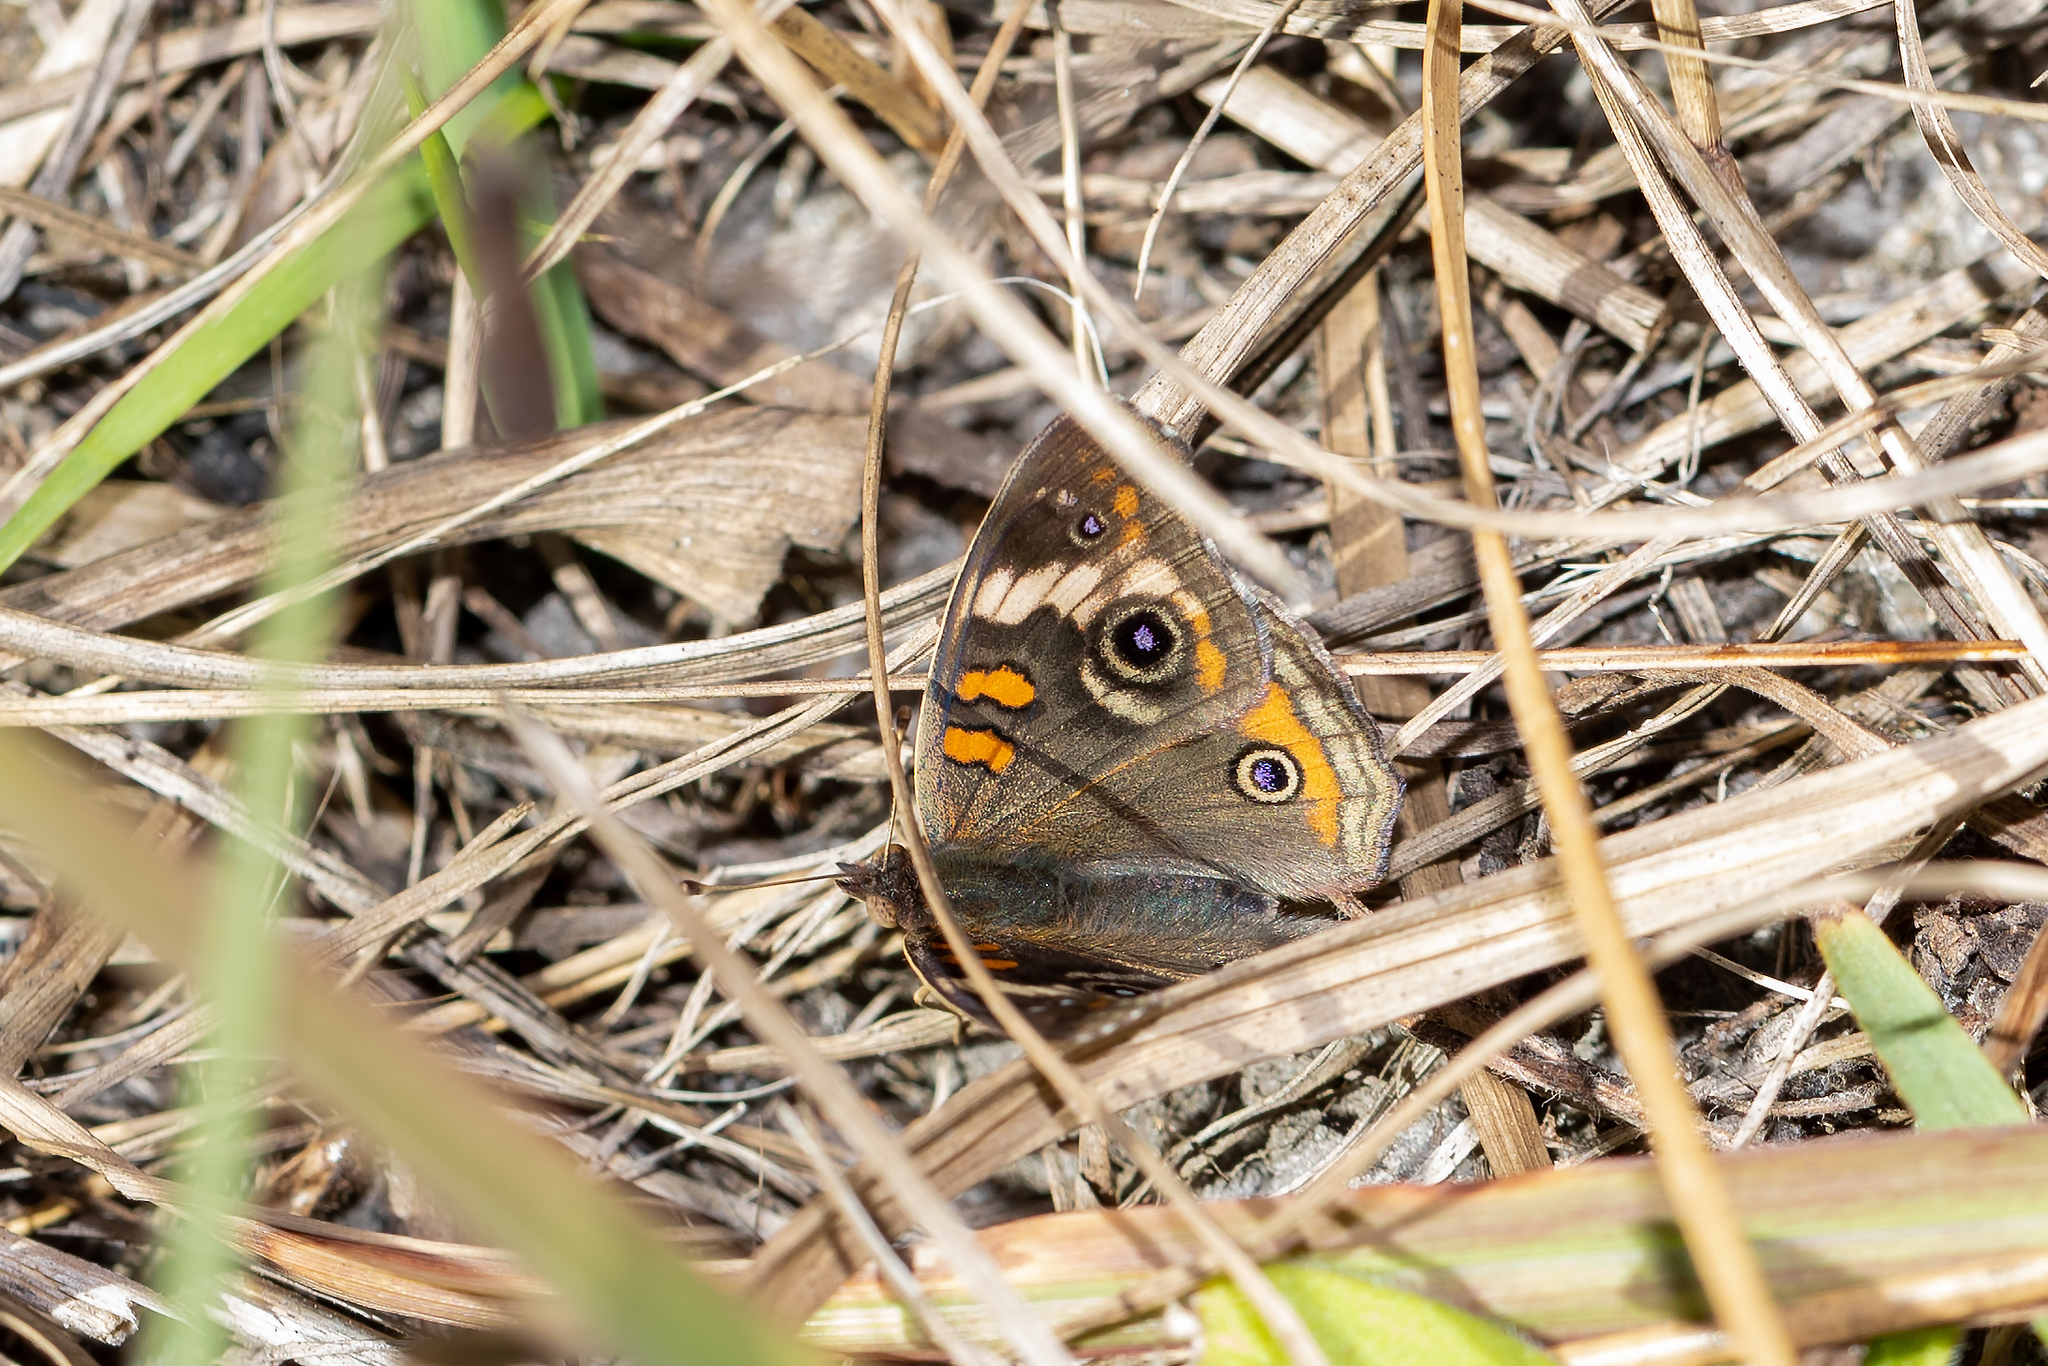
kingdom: Animalia
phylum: Arthropoda
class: Insecta
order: Lepidoptera
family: Nymphalidae
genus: Junonia
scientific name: Junonia coenia
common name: Common buckeye
